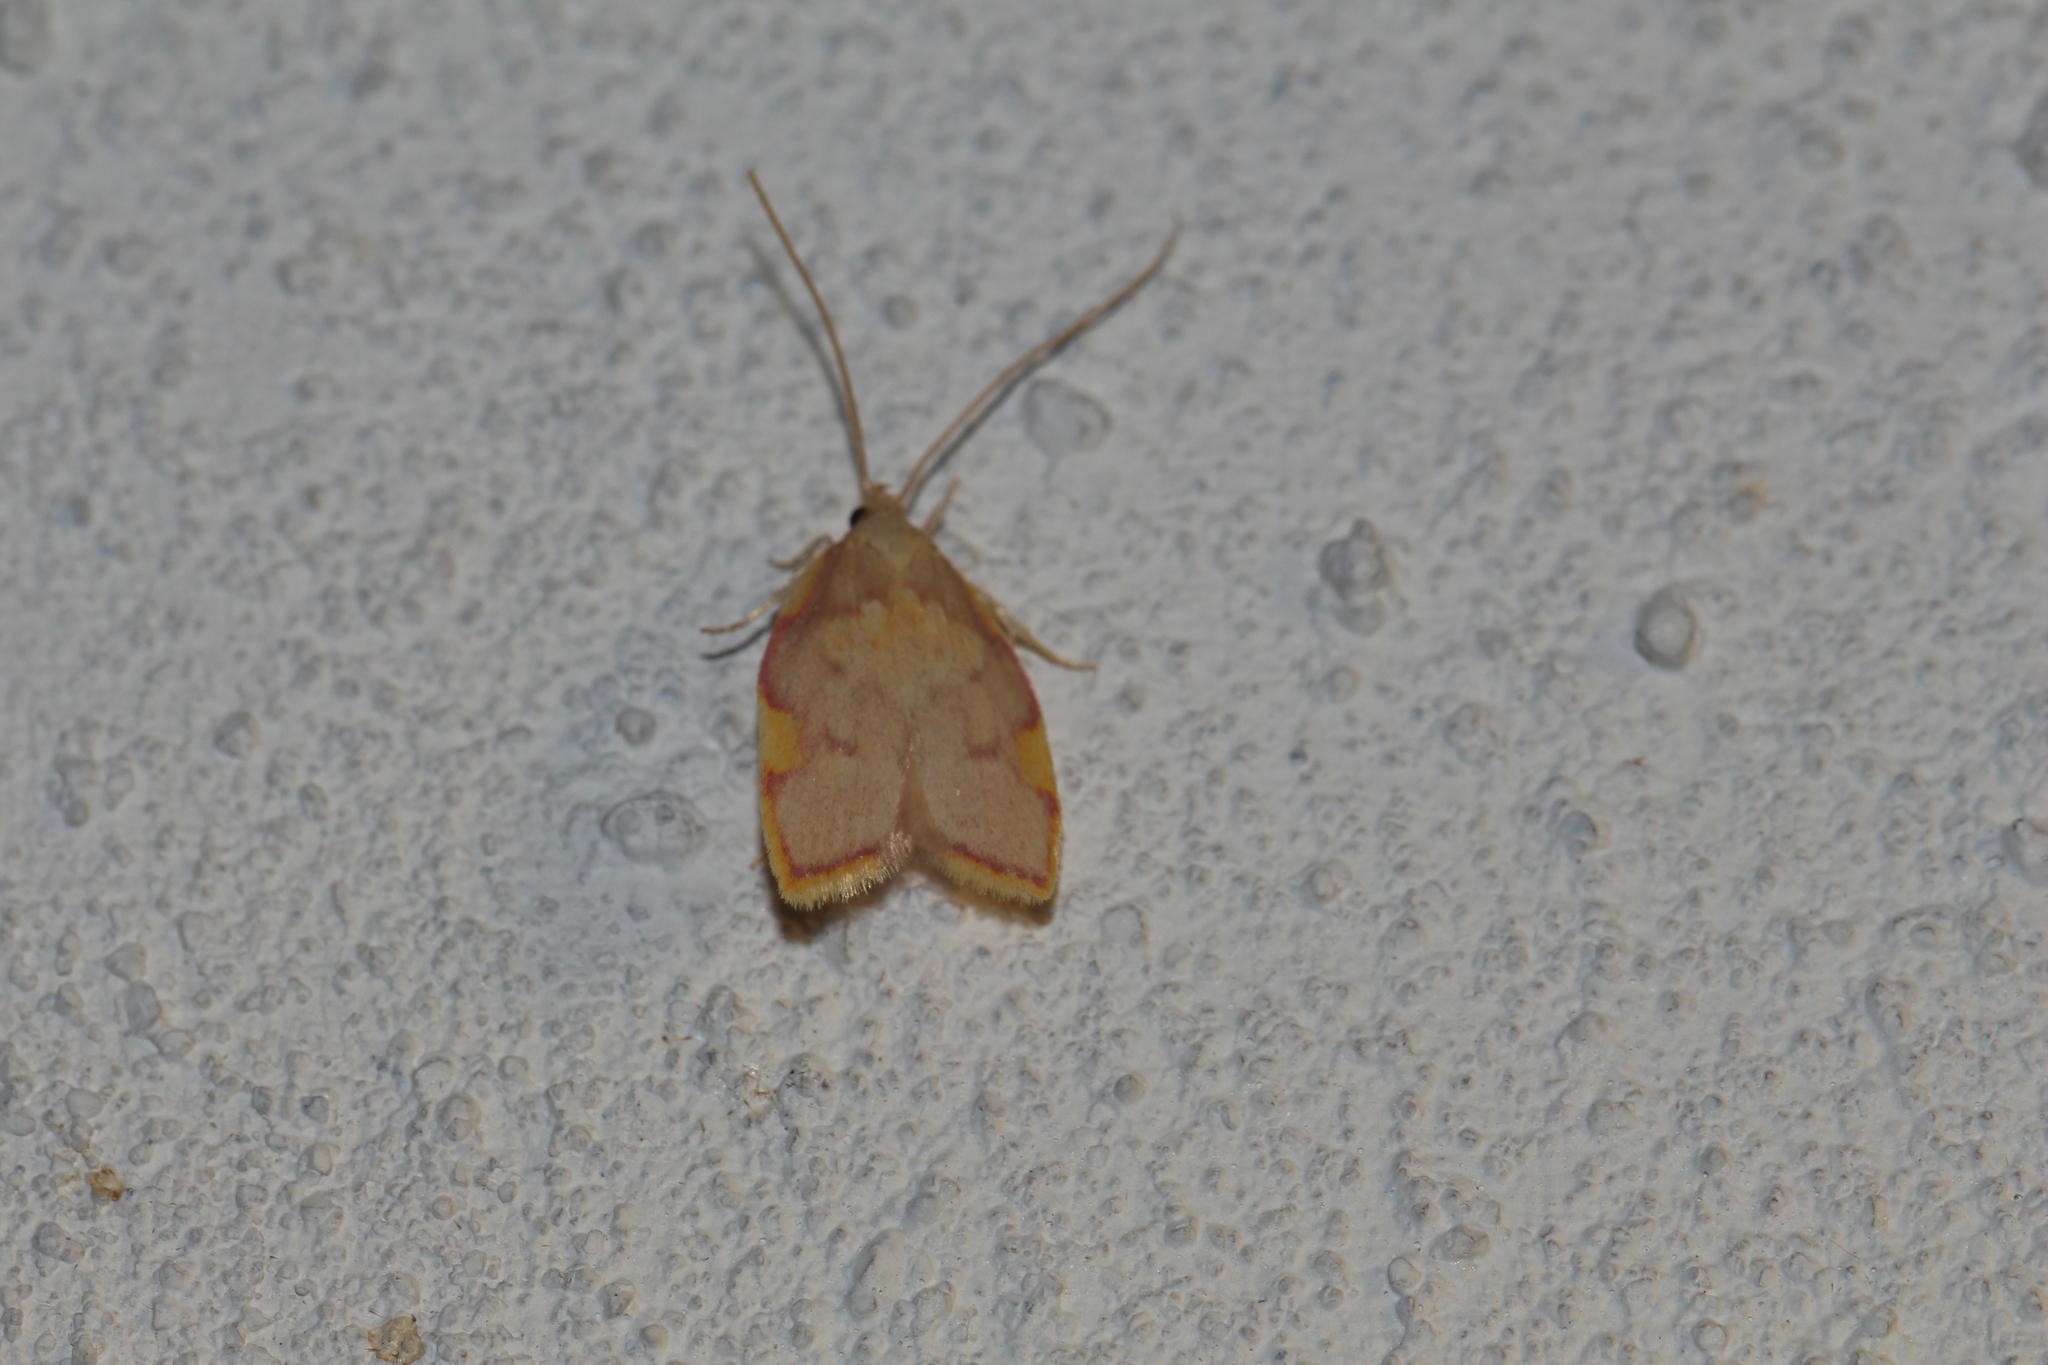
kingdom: Animalia
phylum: Arthropoda
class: Insecta
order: Lepidoptera
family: Peleopodidae
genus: Carcina
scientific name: Carcina quercana
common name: Moth
